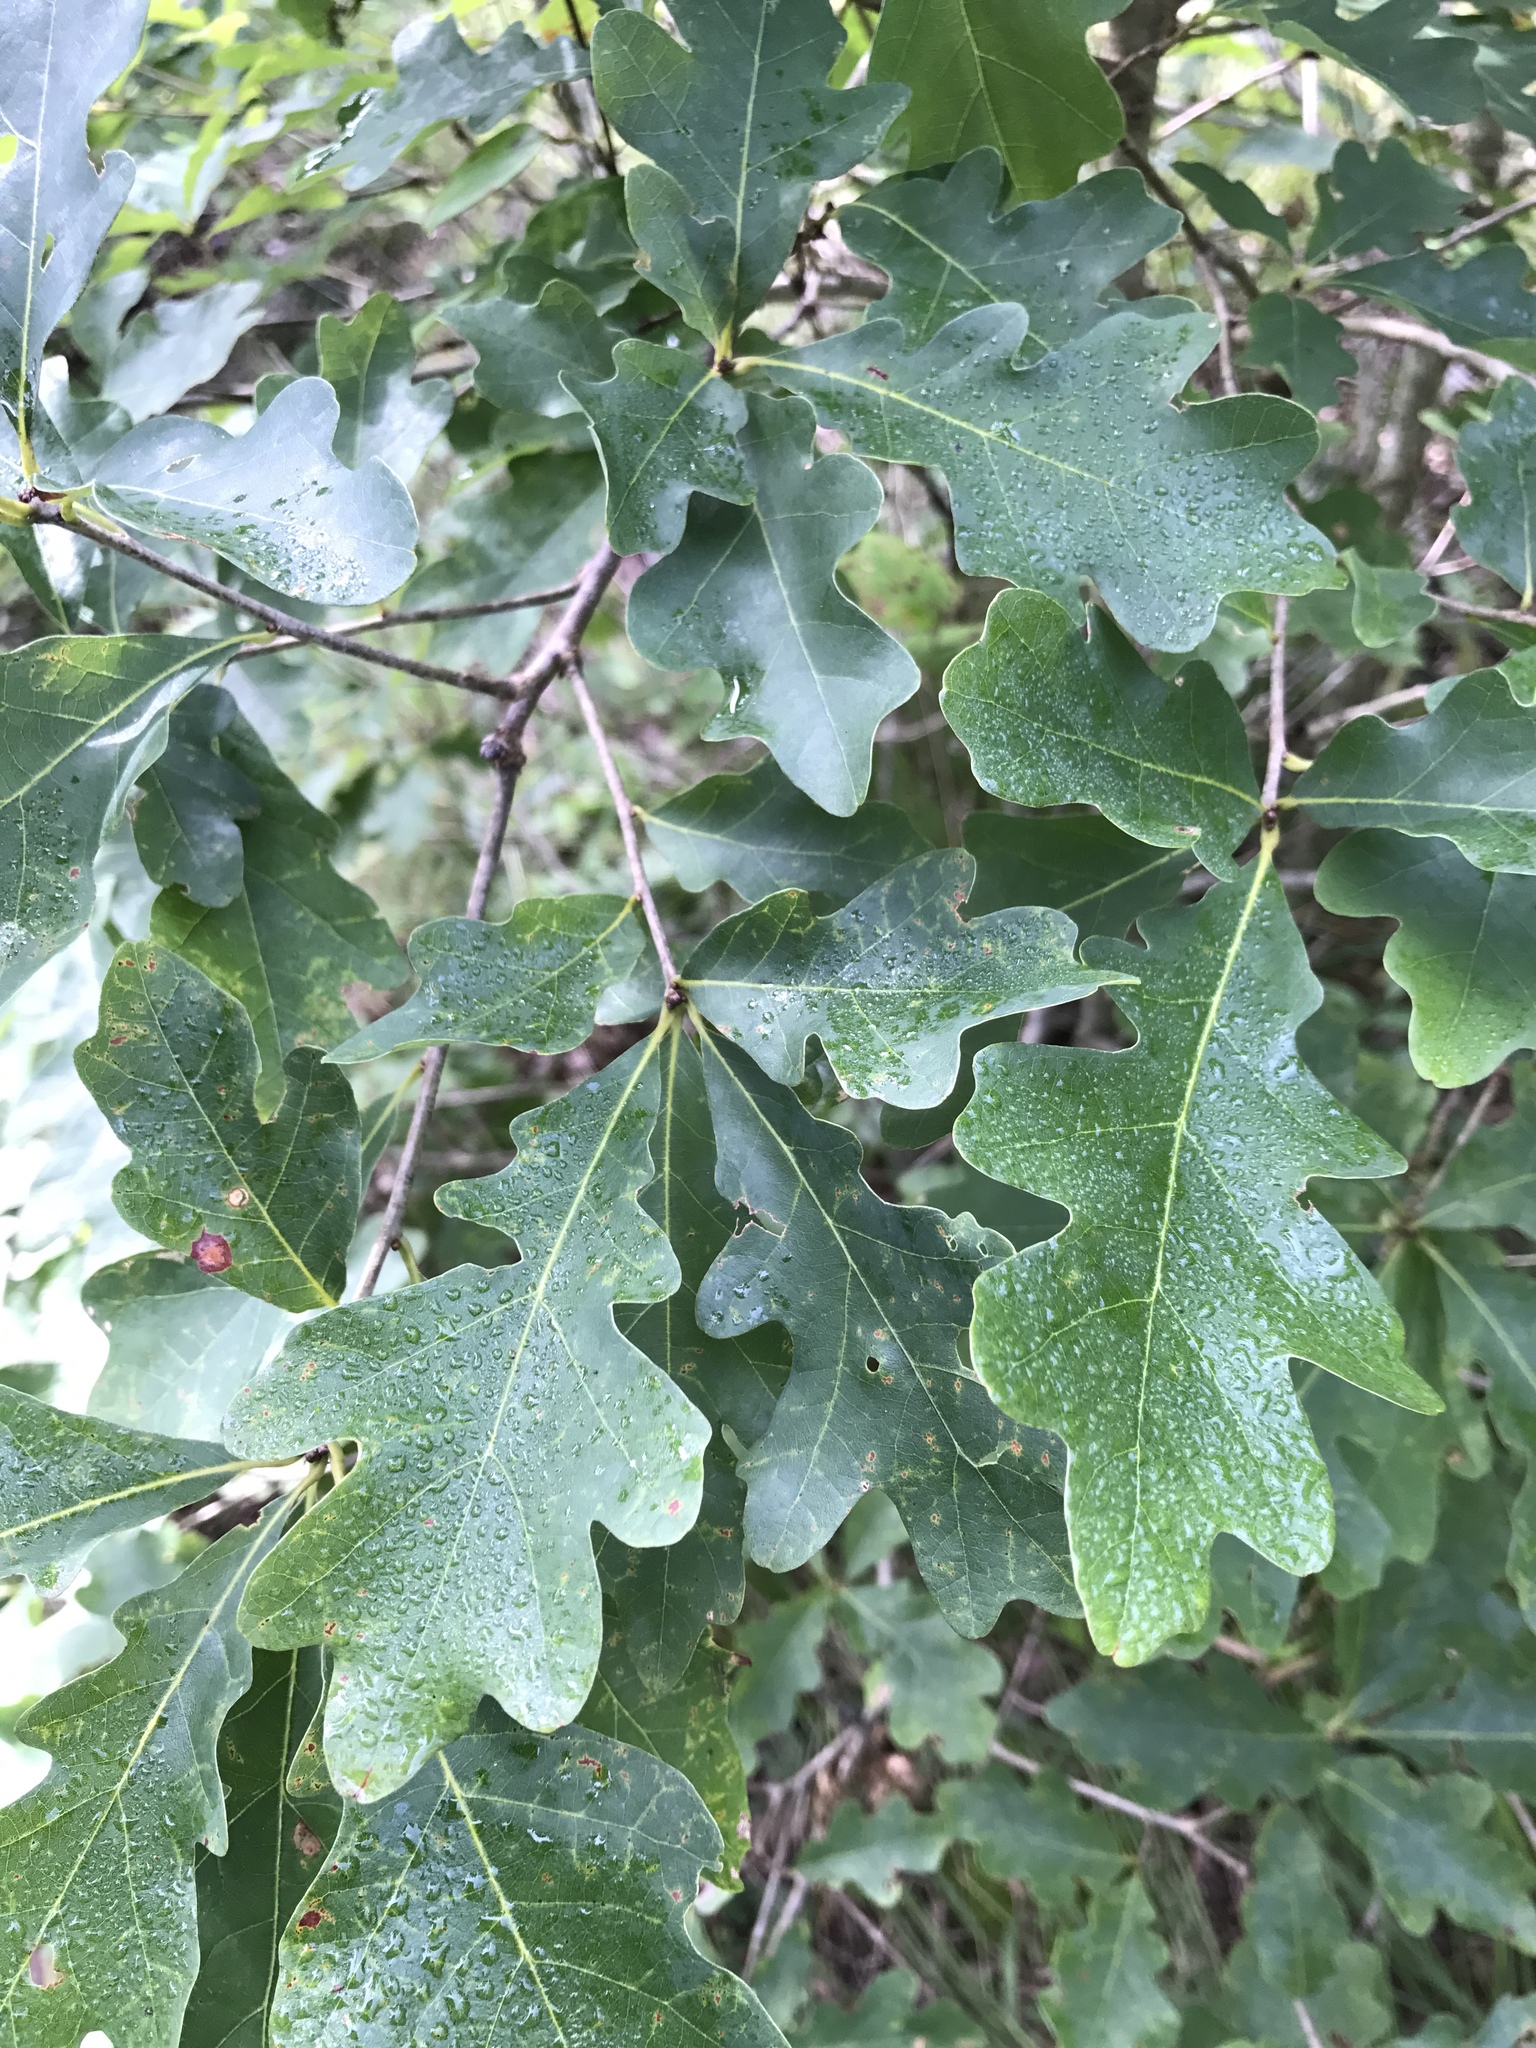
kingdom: Plantae
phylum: Tracheophyta
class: Magnoliopsida
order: Fagales
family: Fagaceae
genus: Quercus
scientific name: Quercus alba
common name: White oak
